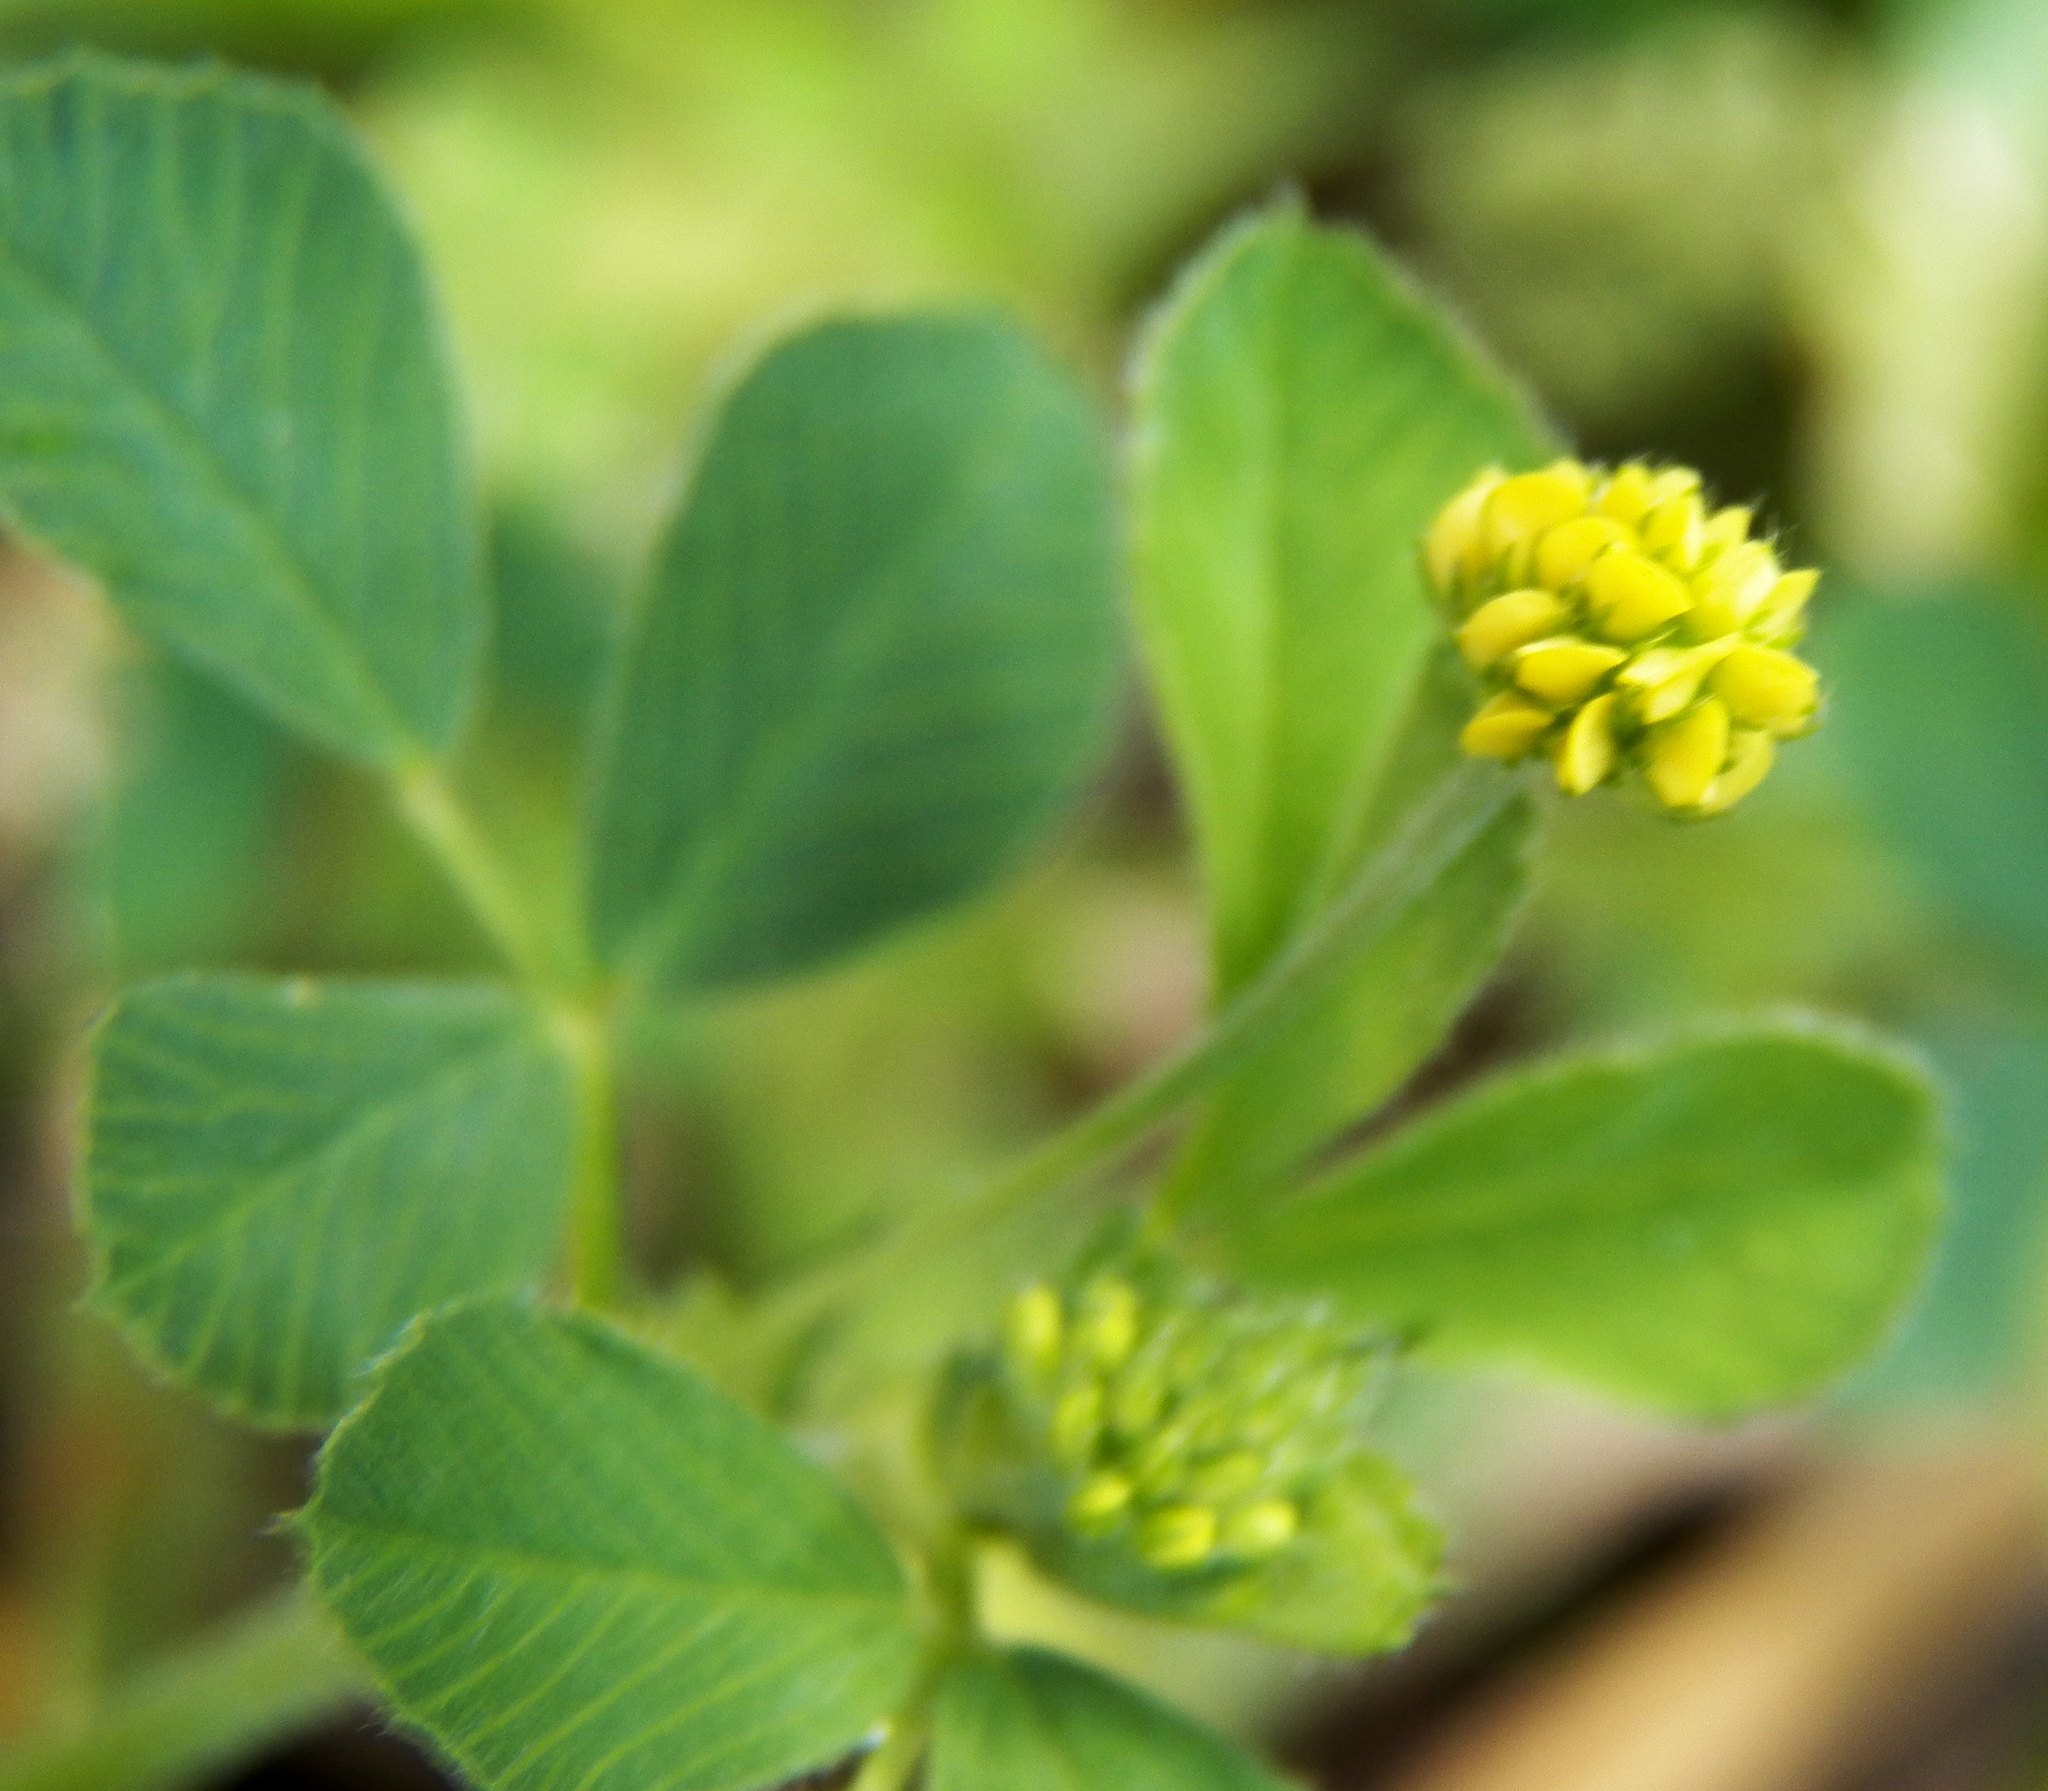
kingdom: Plantae
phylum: Tracheophyta
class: Magnoliopsida
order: Fabales
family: Fabaceae
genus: Medicago
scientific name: Medicago lupulina
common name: Black medick
